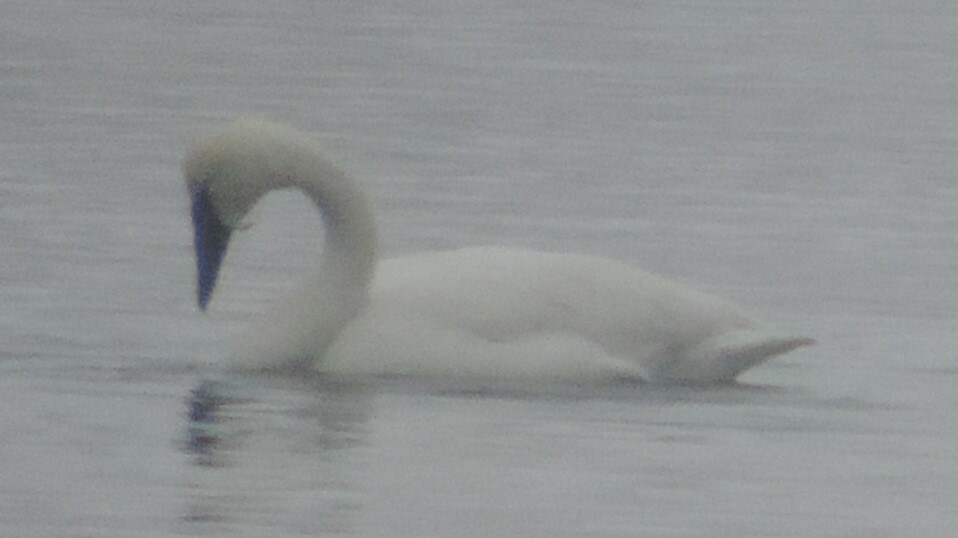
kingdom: Animalia
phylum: Chordata
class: Aves
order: Anseriformes
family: Anatidae
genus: Cygnus
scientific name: Cygnus buccinator
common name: Trumpeter swan
